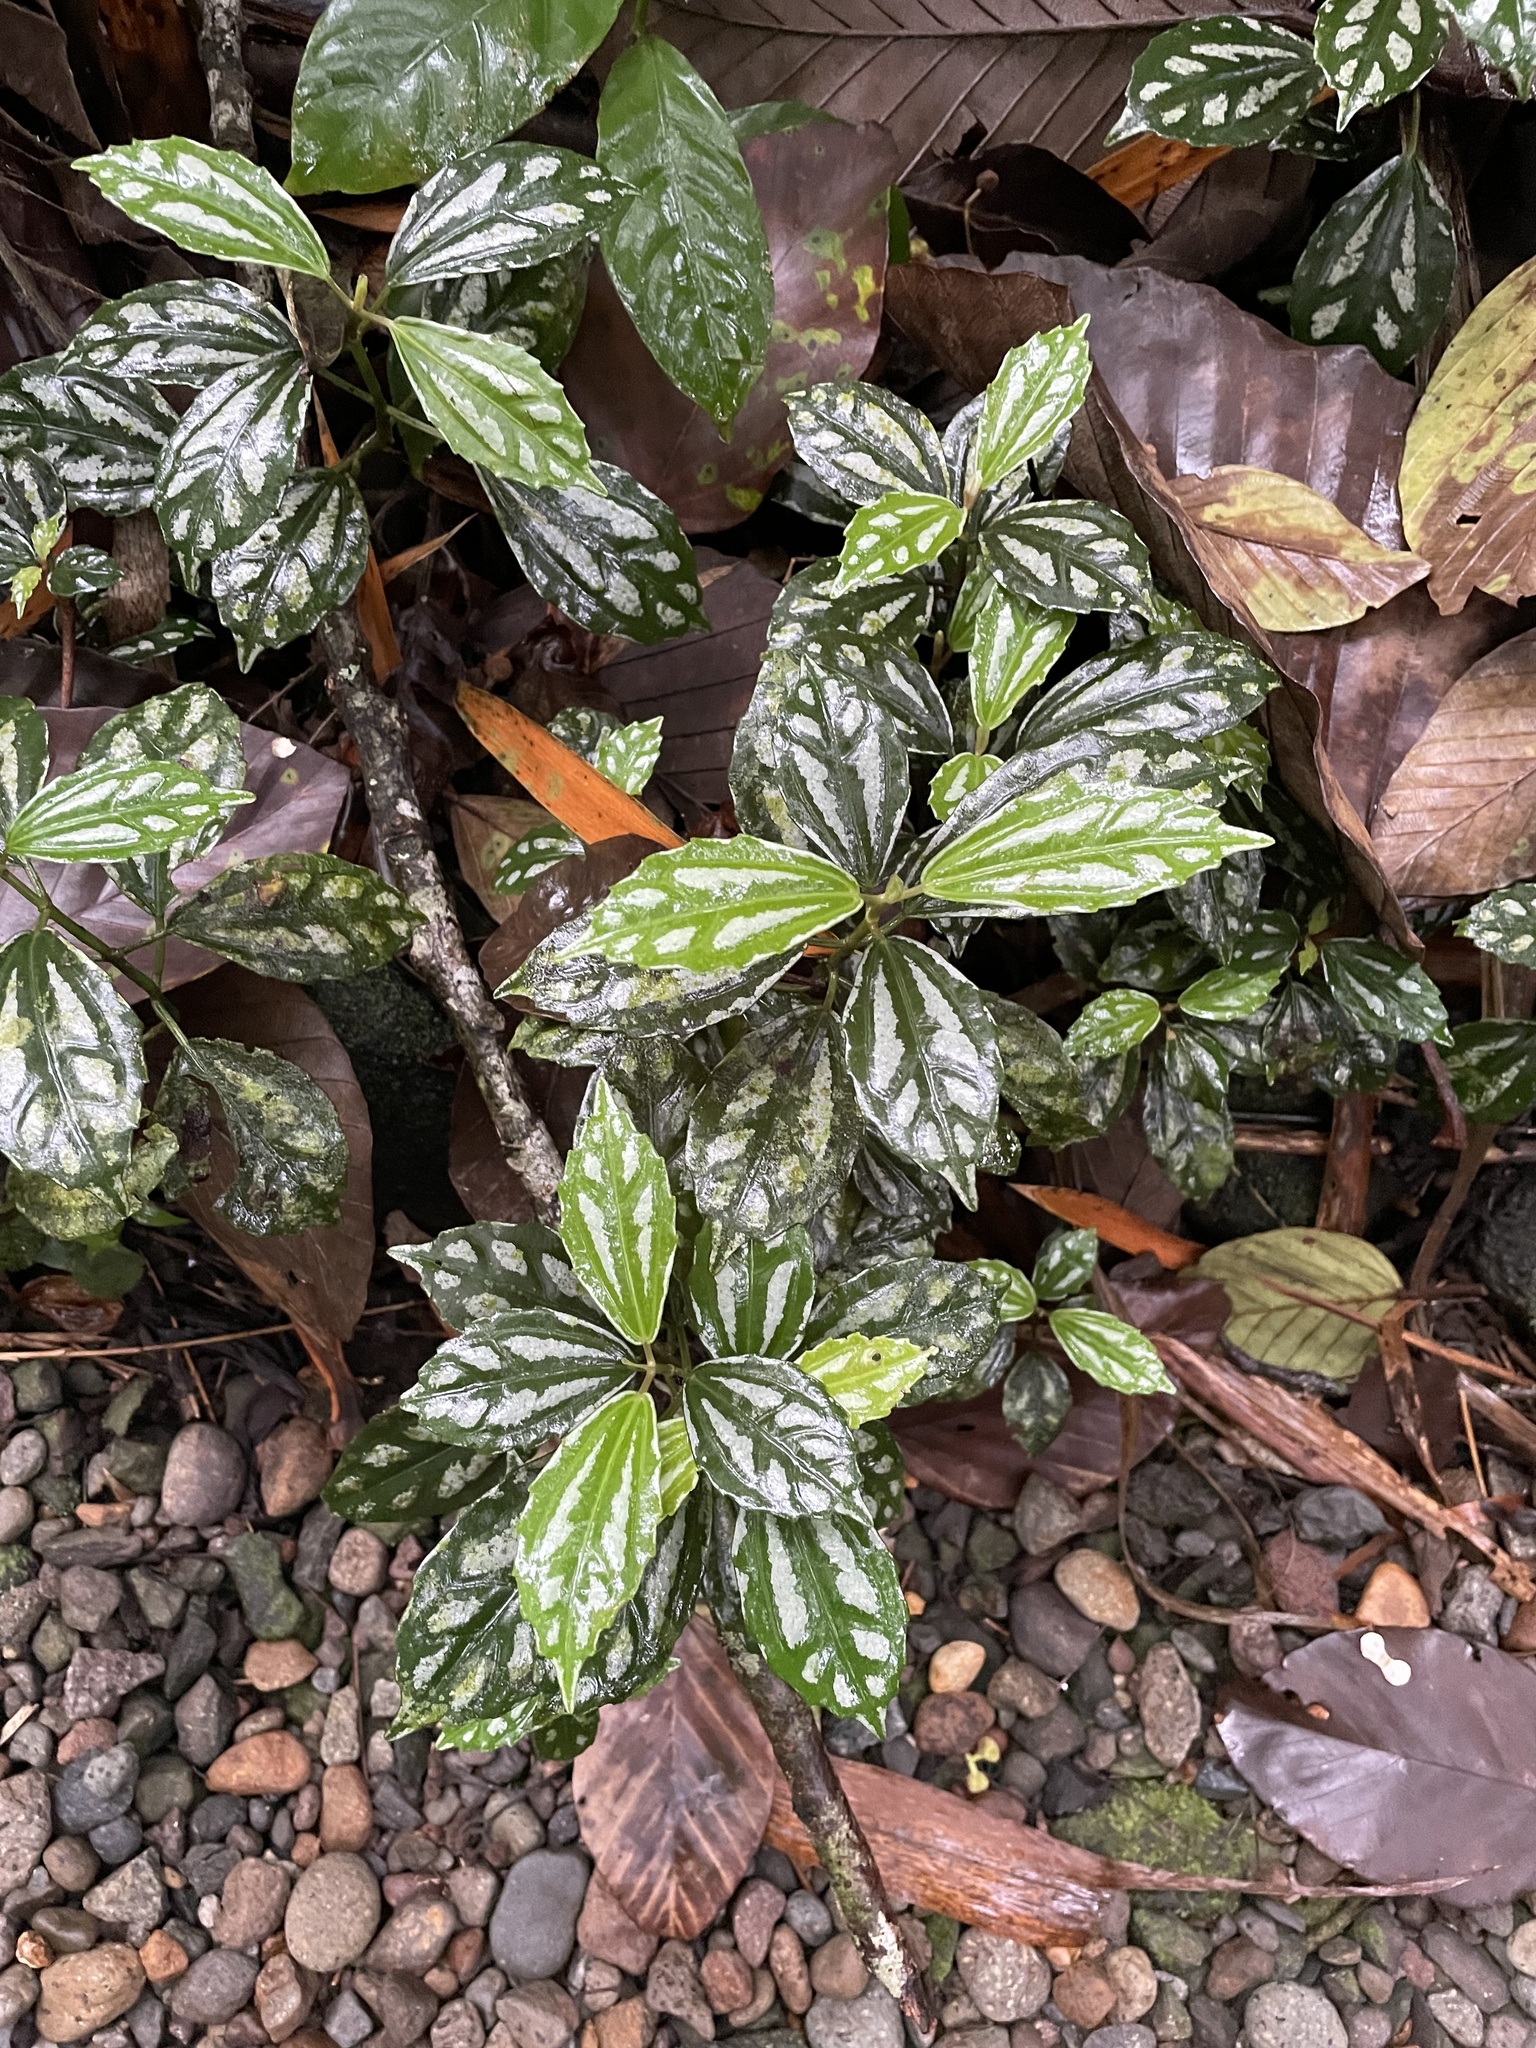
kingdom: Plantae
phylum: Tracheophyta
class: Magnoliopsida
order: Rosales
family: Urticaceae
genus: Pilea
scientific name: Pilea cadierei
